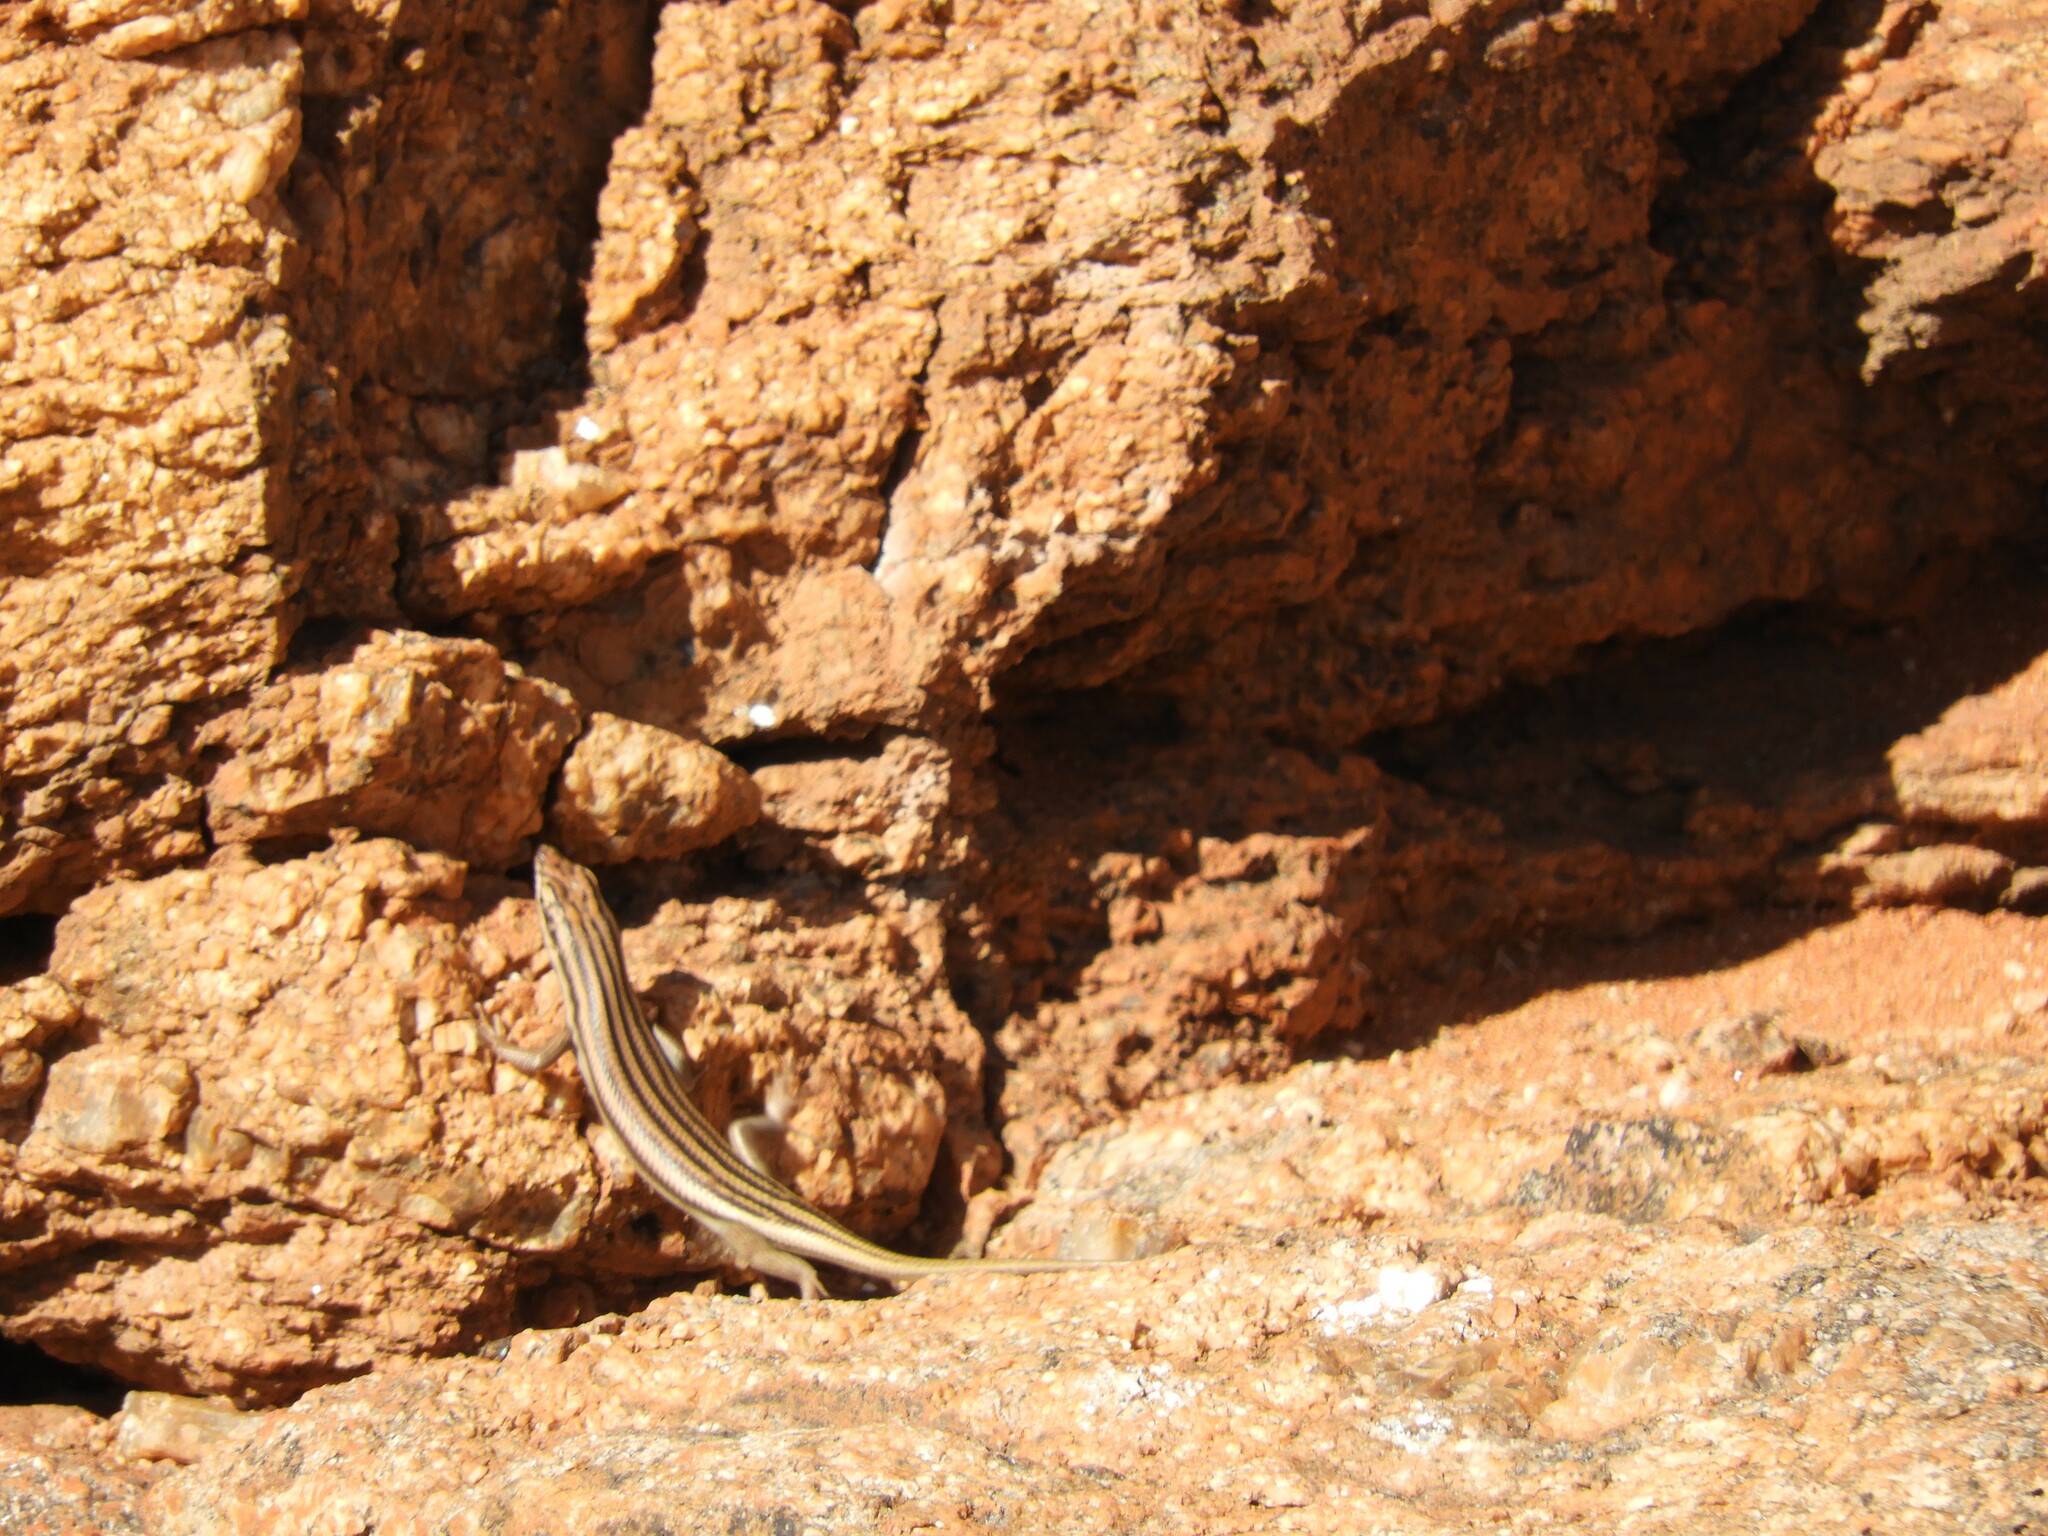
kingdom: Animalia
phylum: Chordata
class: Squamata
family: Scincidae
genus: Trachylepis
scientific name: Trachylepis sulcata
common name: Western rock skink
